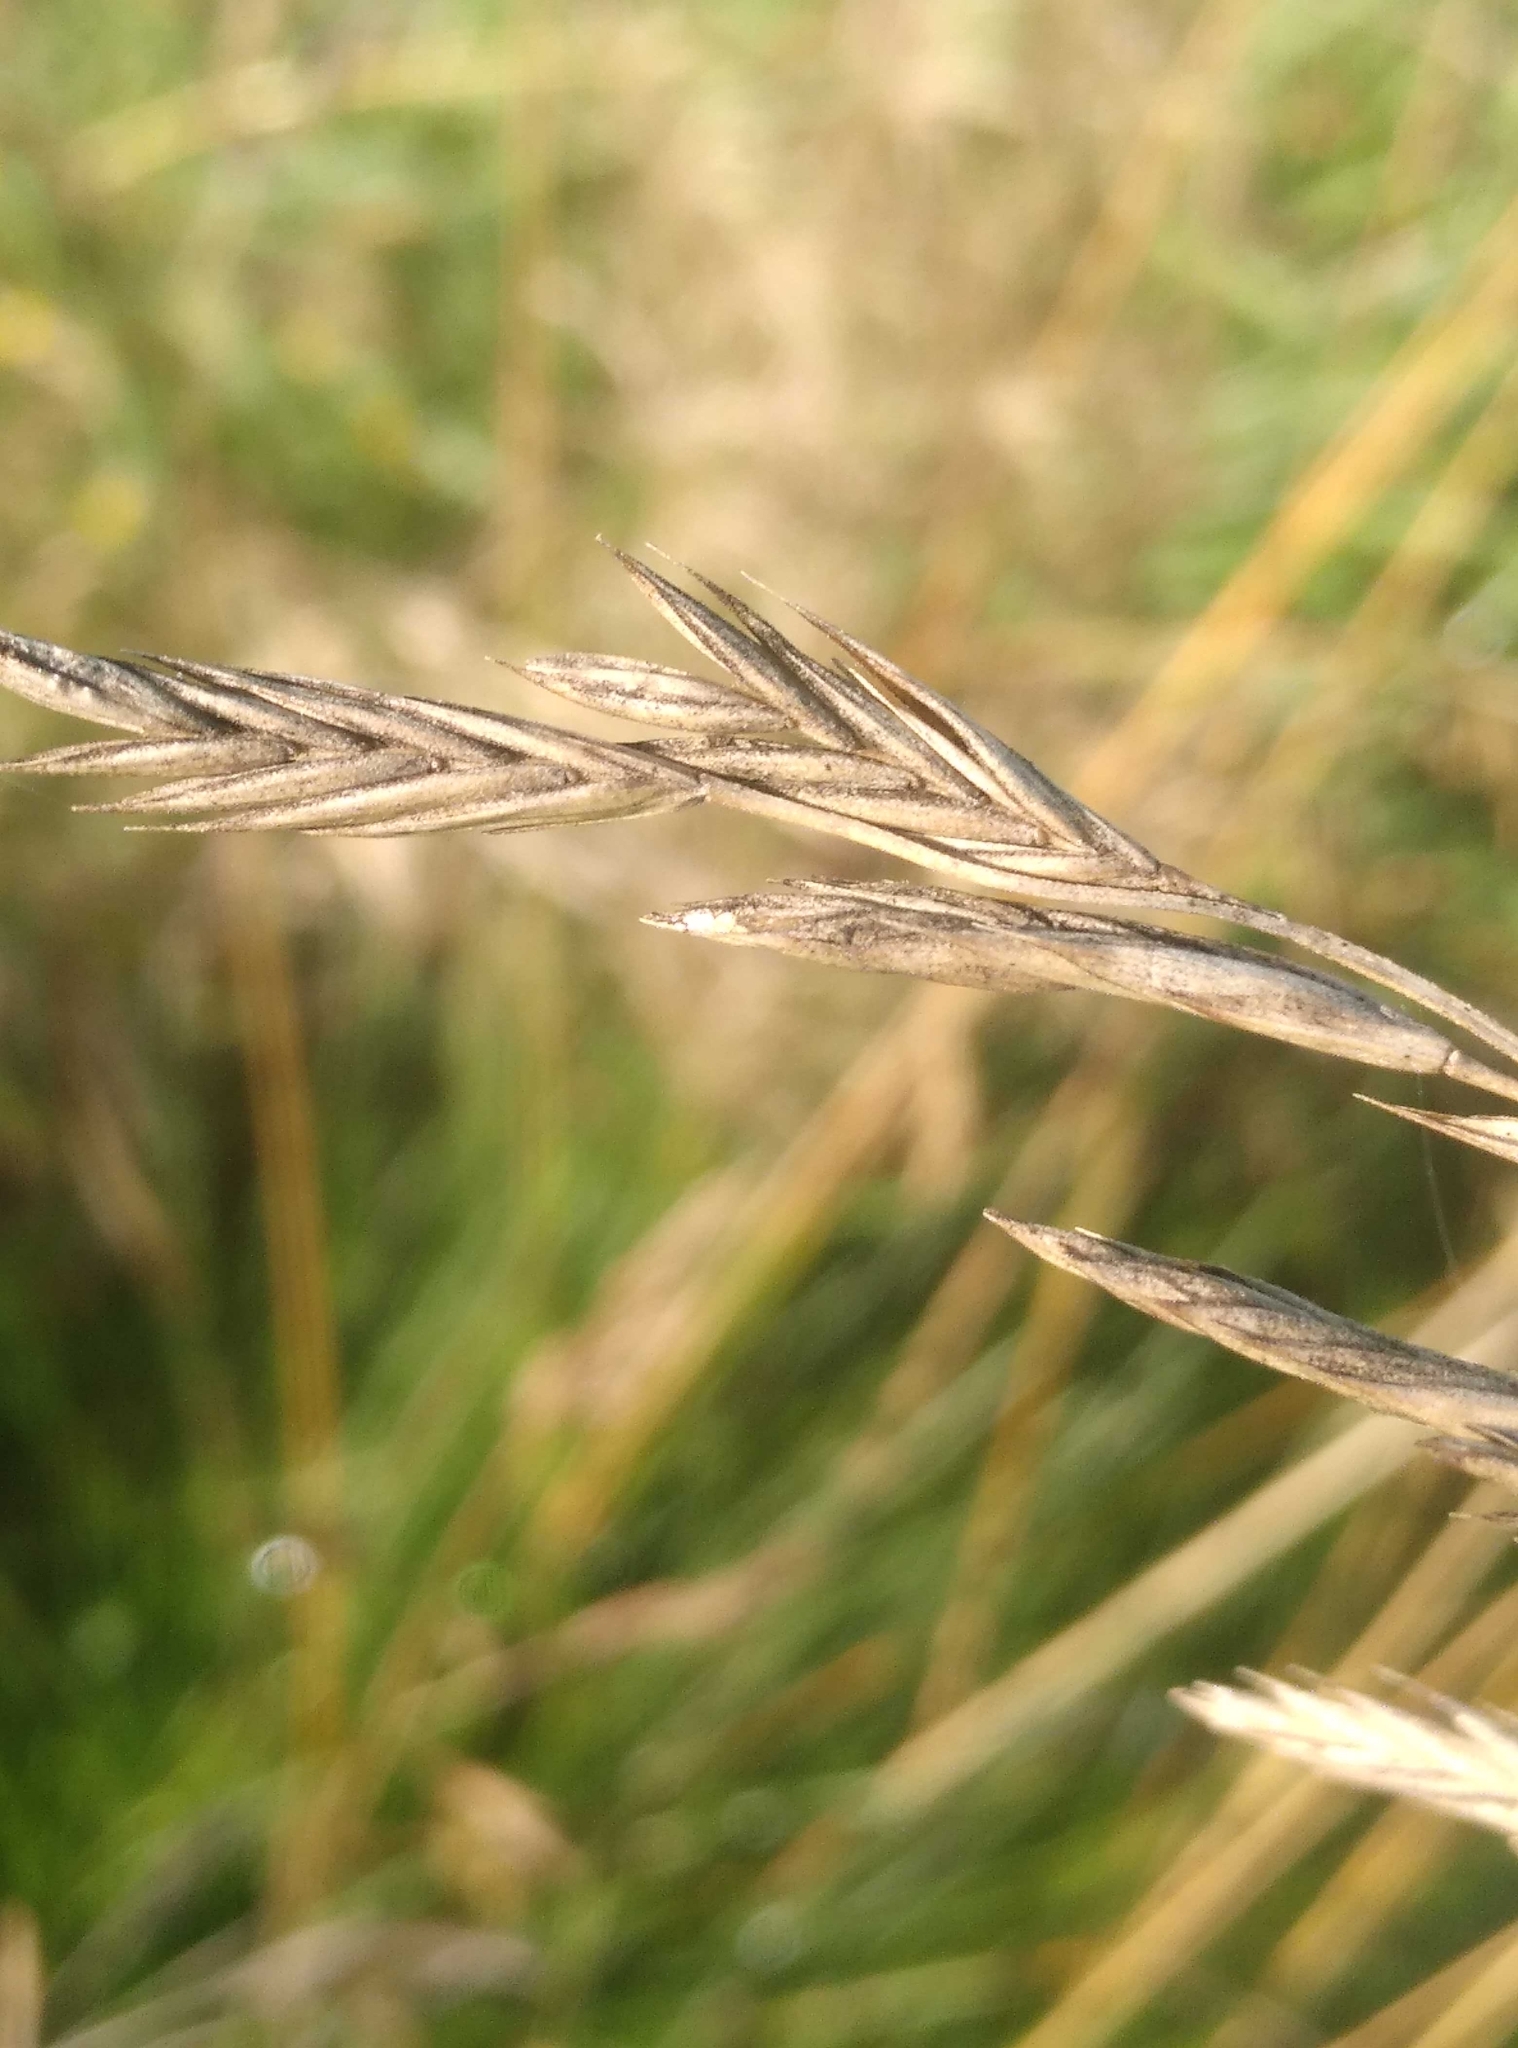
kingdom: Plantae
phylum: Tracheophyta
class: Liliopsida
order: Poales
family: Poaceae
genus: Festuca
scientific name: Festuca rubra
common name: Red fescue
